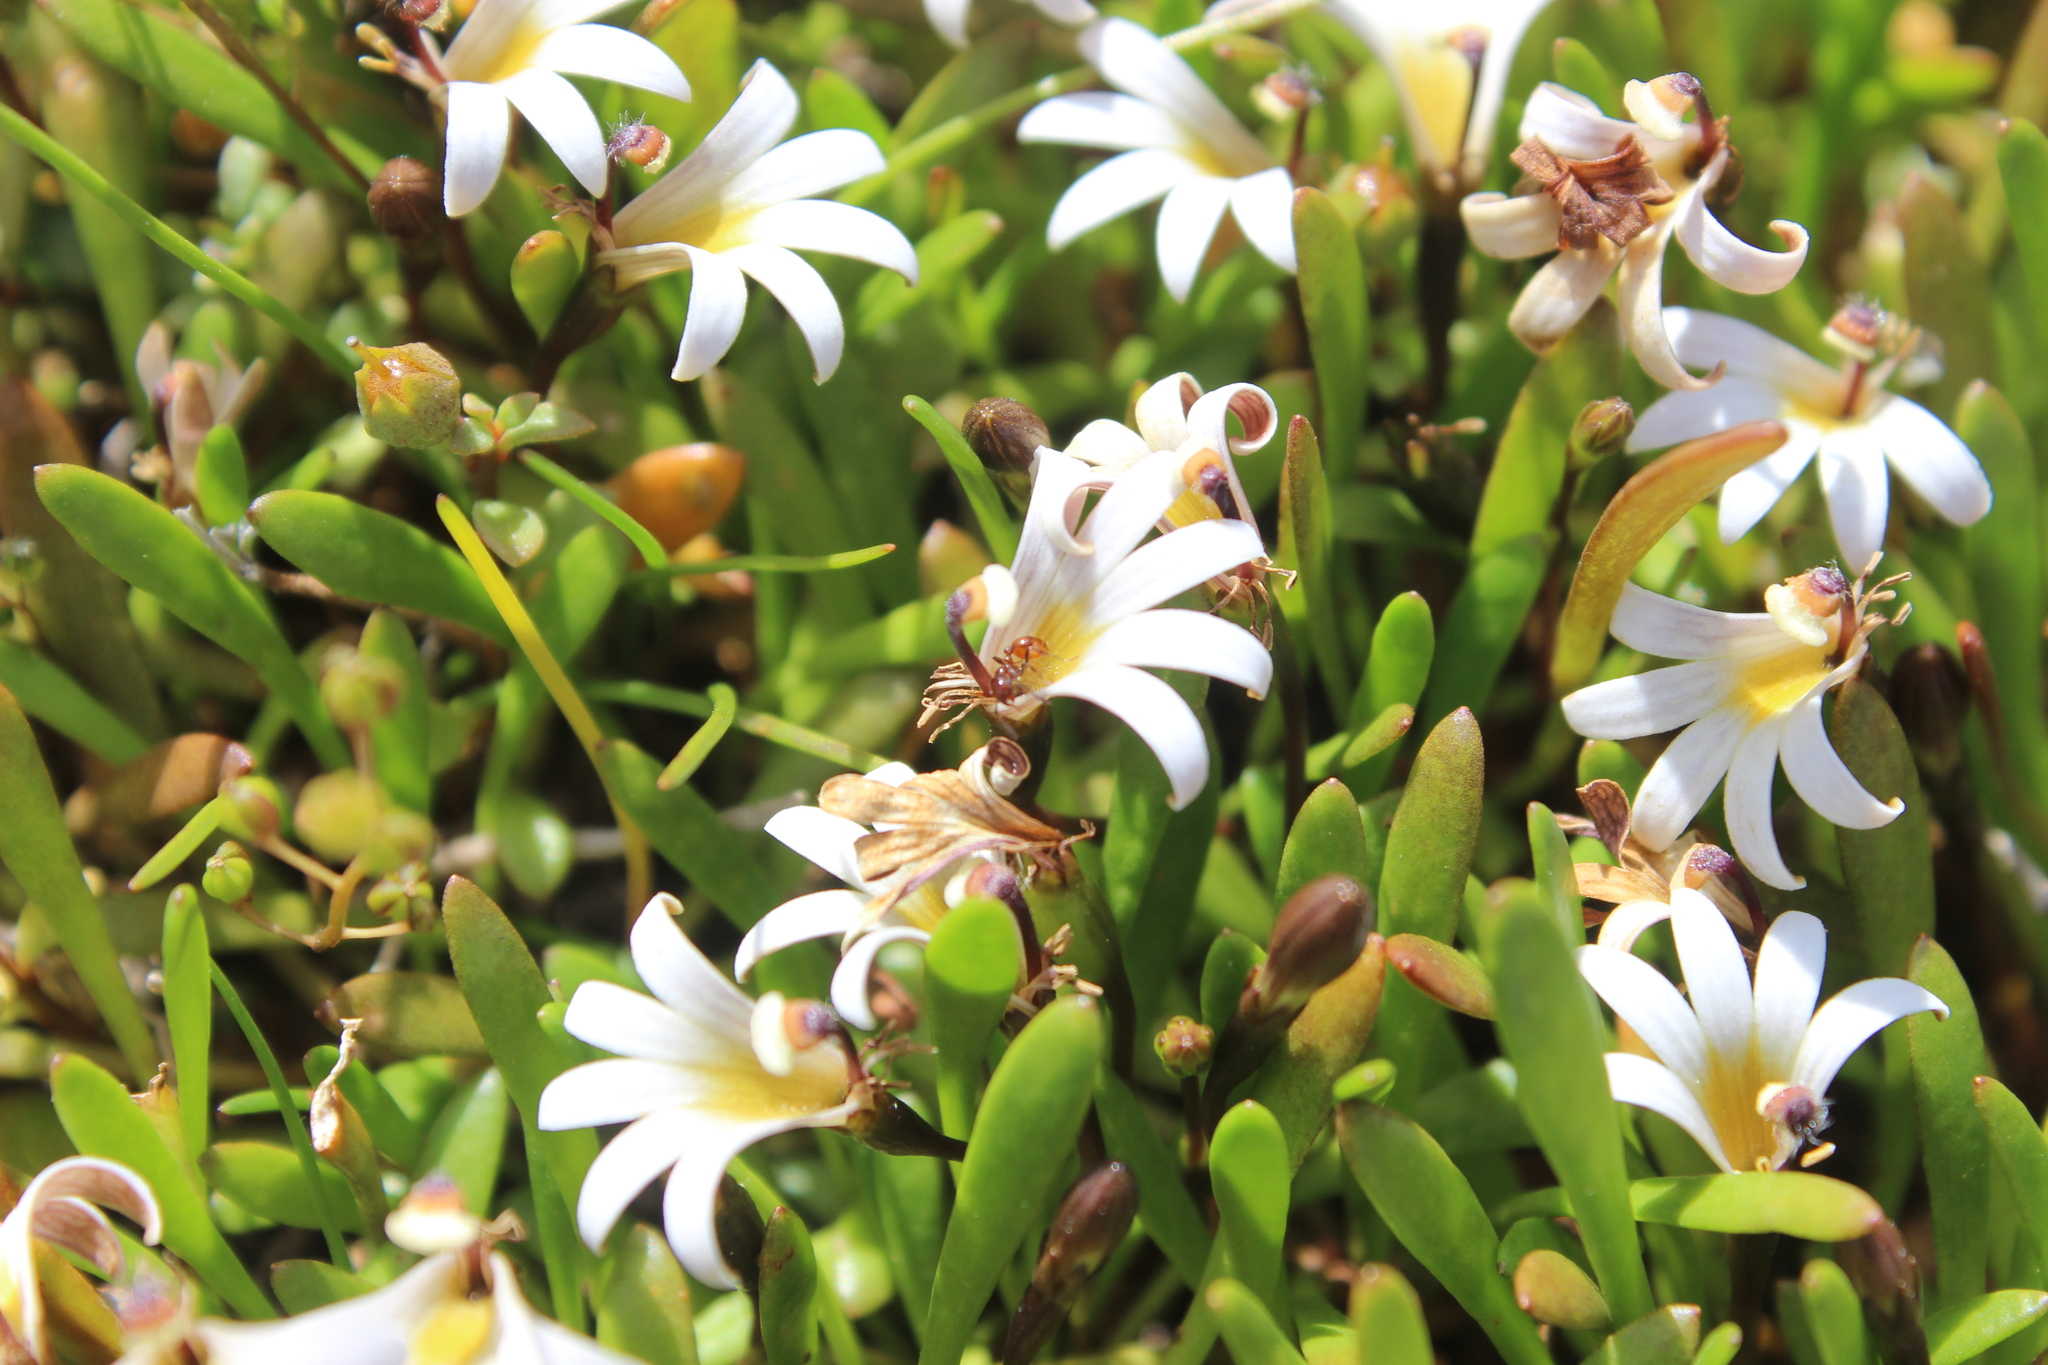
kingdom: Plantae
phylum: Tracheophyta
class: Magnoliopsida
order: Asterales
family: Goodeniaceae
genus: Goodenia
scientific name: Goodenia radicans
